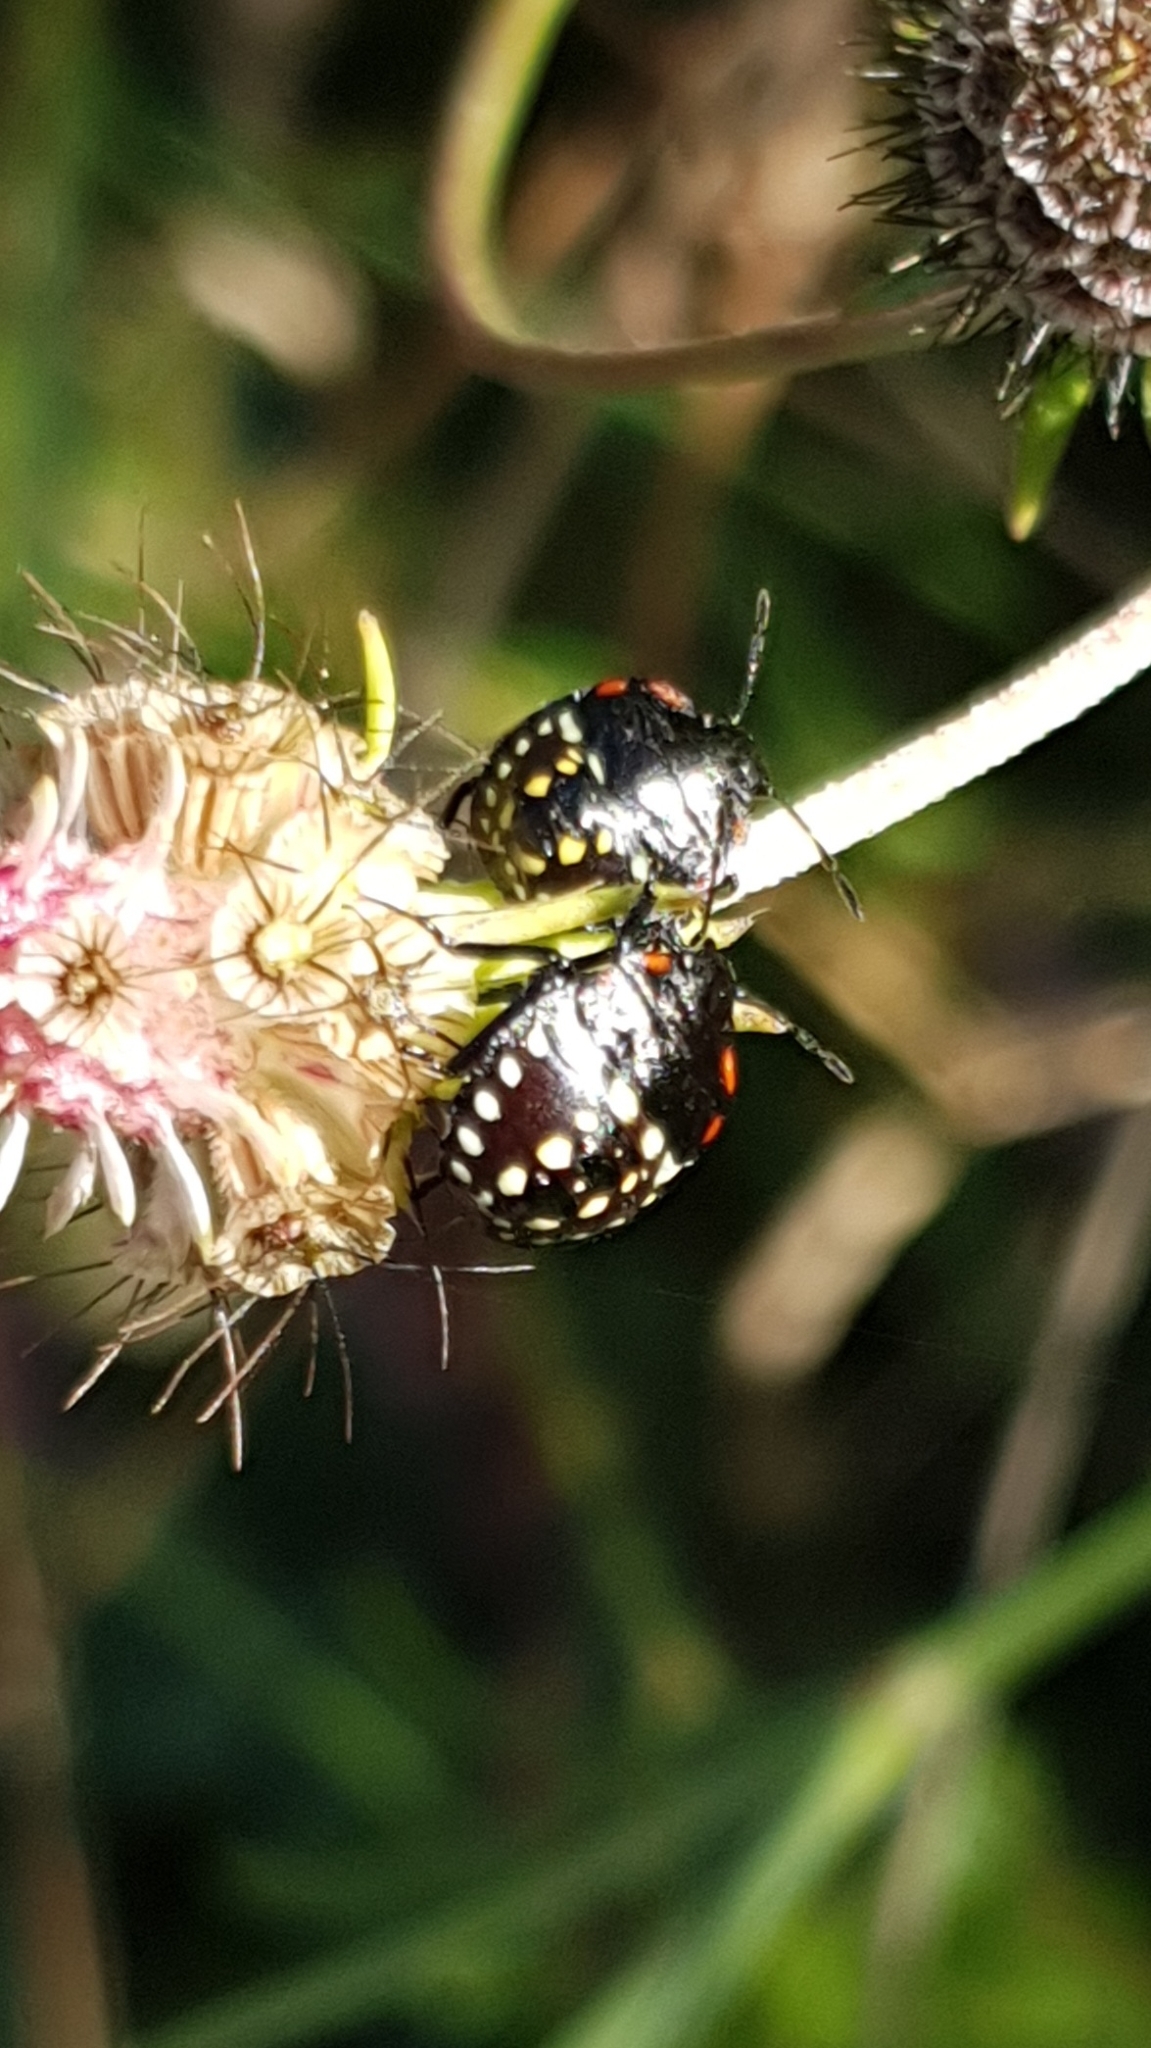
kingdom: Animalia
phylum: Arthropoda
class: Insecta
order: Hemiptera
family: Pentatomidae
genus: Nezara
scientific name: Nezara viridula
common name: Southern green stink bug
